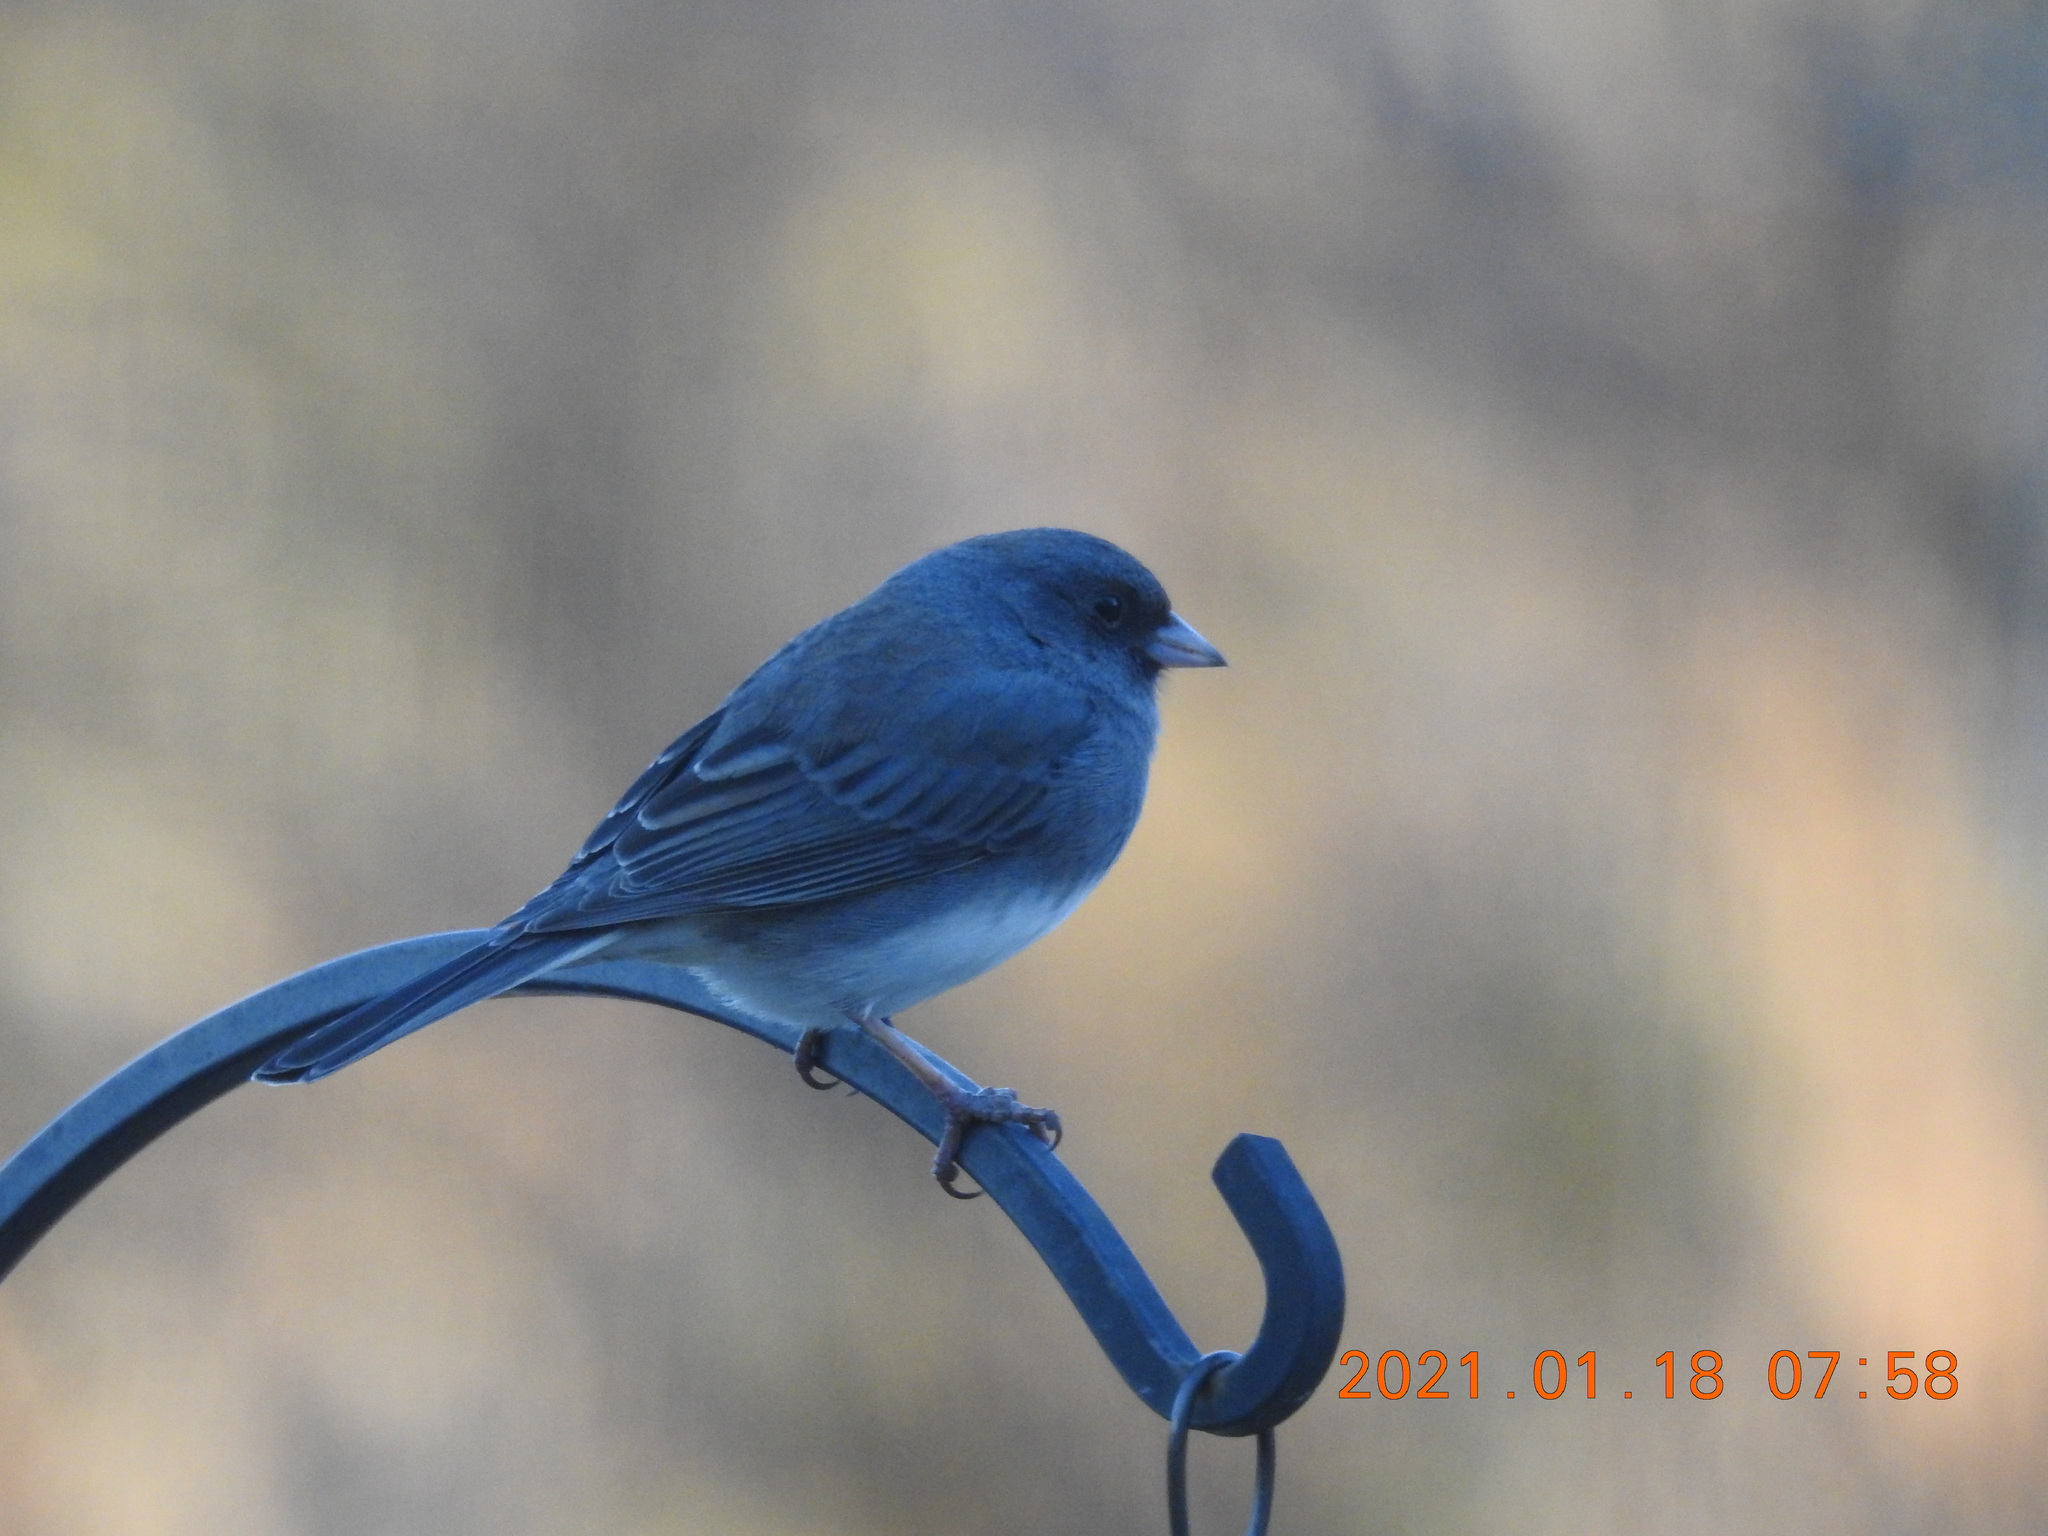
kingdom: Animalia
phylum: Chordata
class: Aves
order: Passeriformes
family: Passerellidae
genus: Junco
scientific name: Junco hyemalis
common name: Dark-eyed junco
